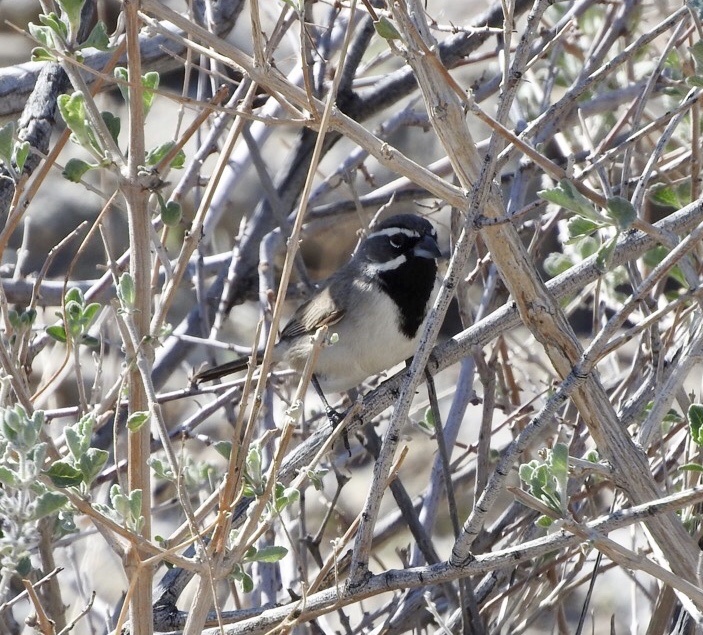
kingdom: Animalia
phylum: Chordata
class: Aves
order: Passeriformes
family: Passerellidae
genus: Amphispiza
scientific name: Amphispiza bilineata
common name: Black-throated sparrow
